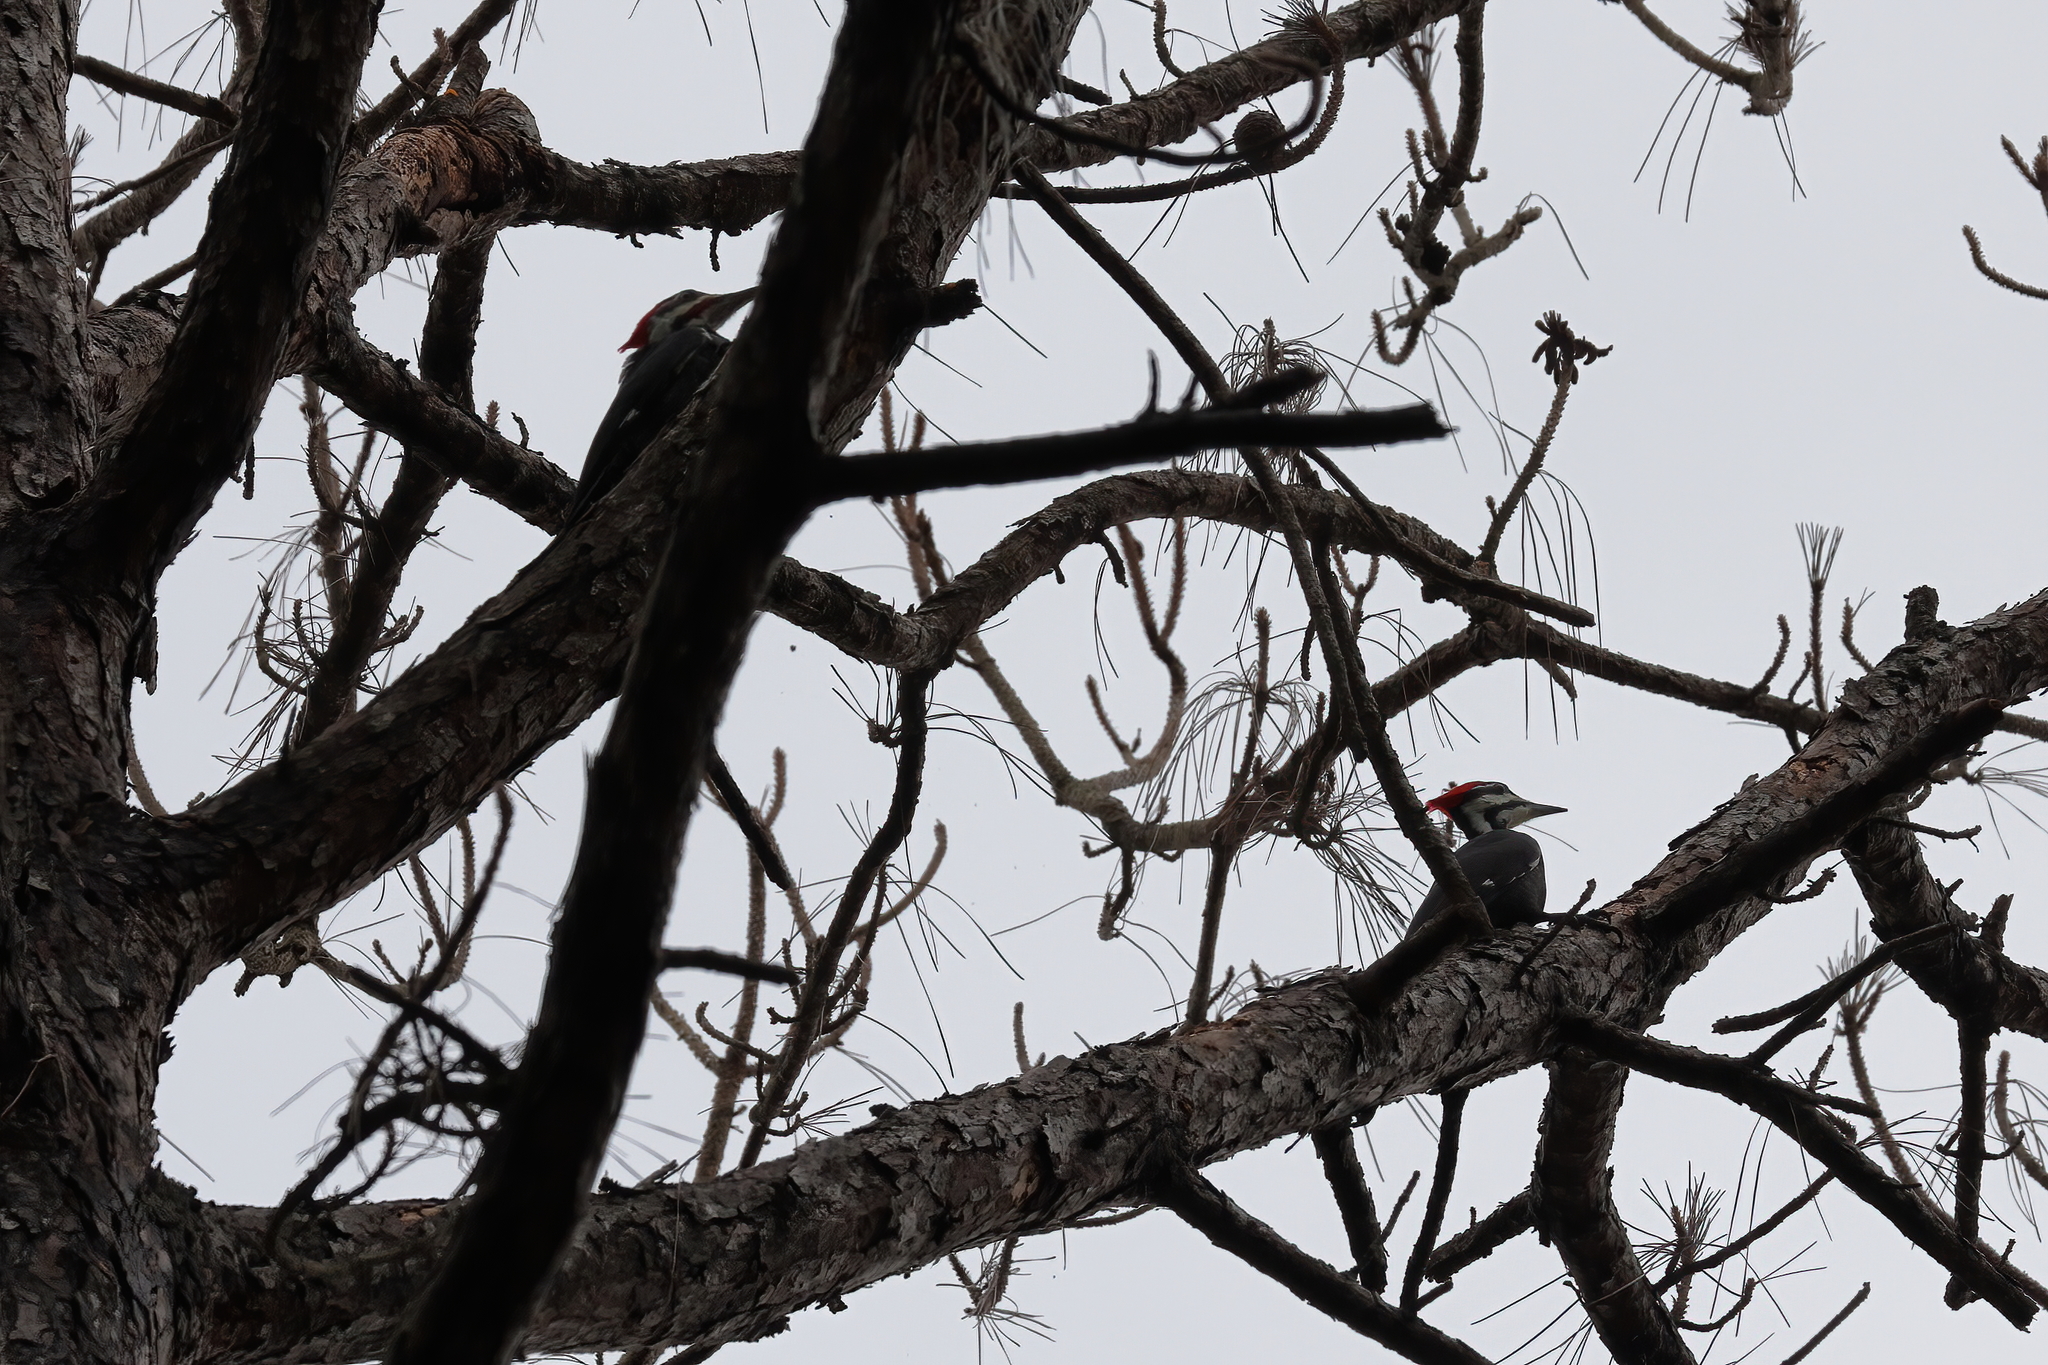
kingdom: Animalia
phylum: Chordata
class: Aves
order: Piciformes
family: Picidae
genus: Dryocopus
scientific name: Dryocopus pileatus
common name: Pileated woodpecker
